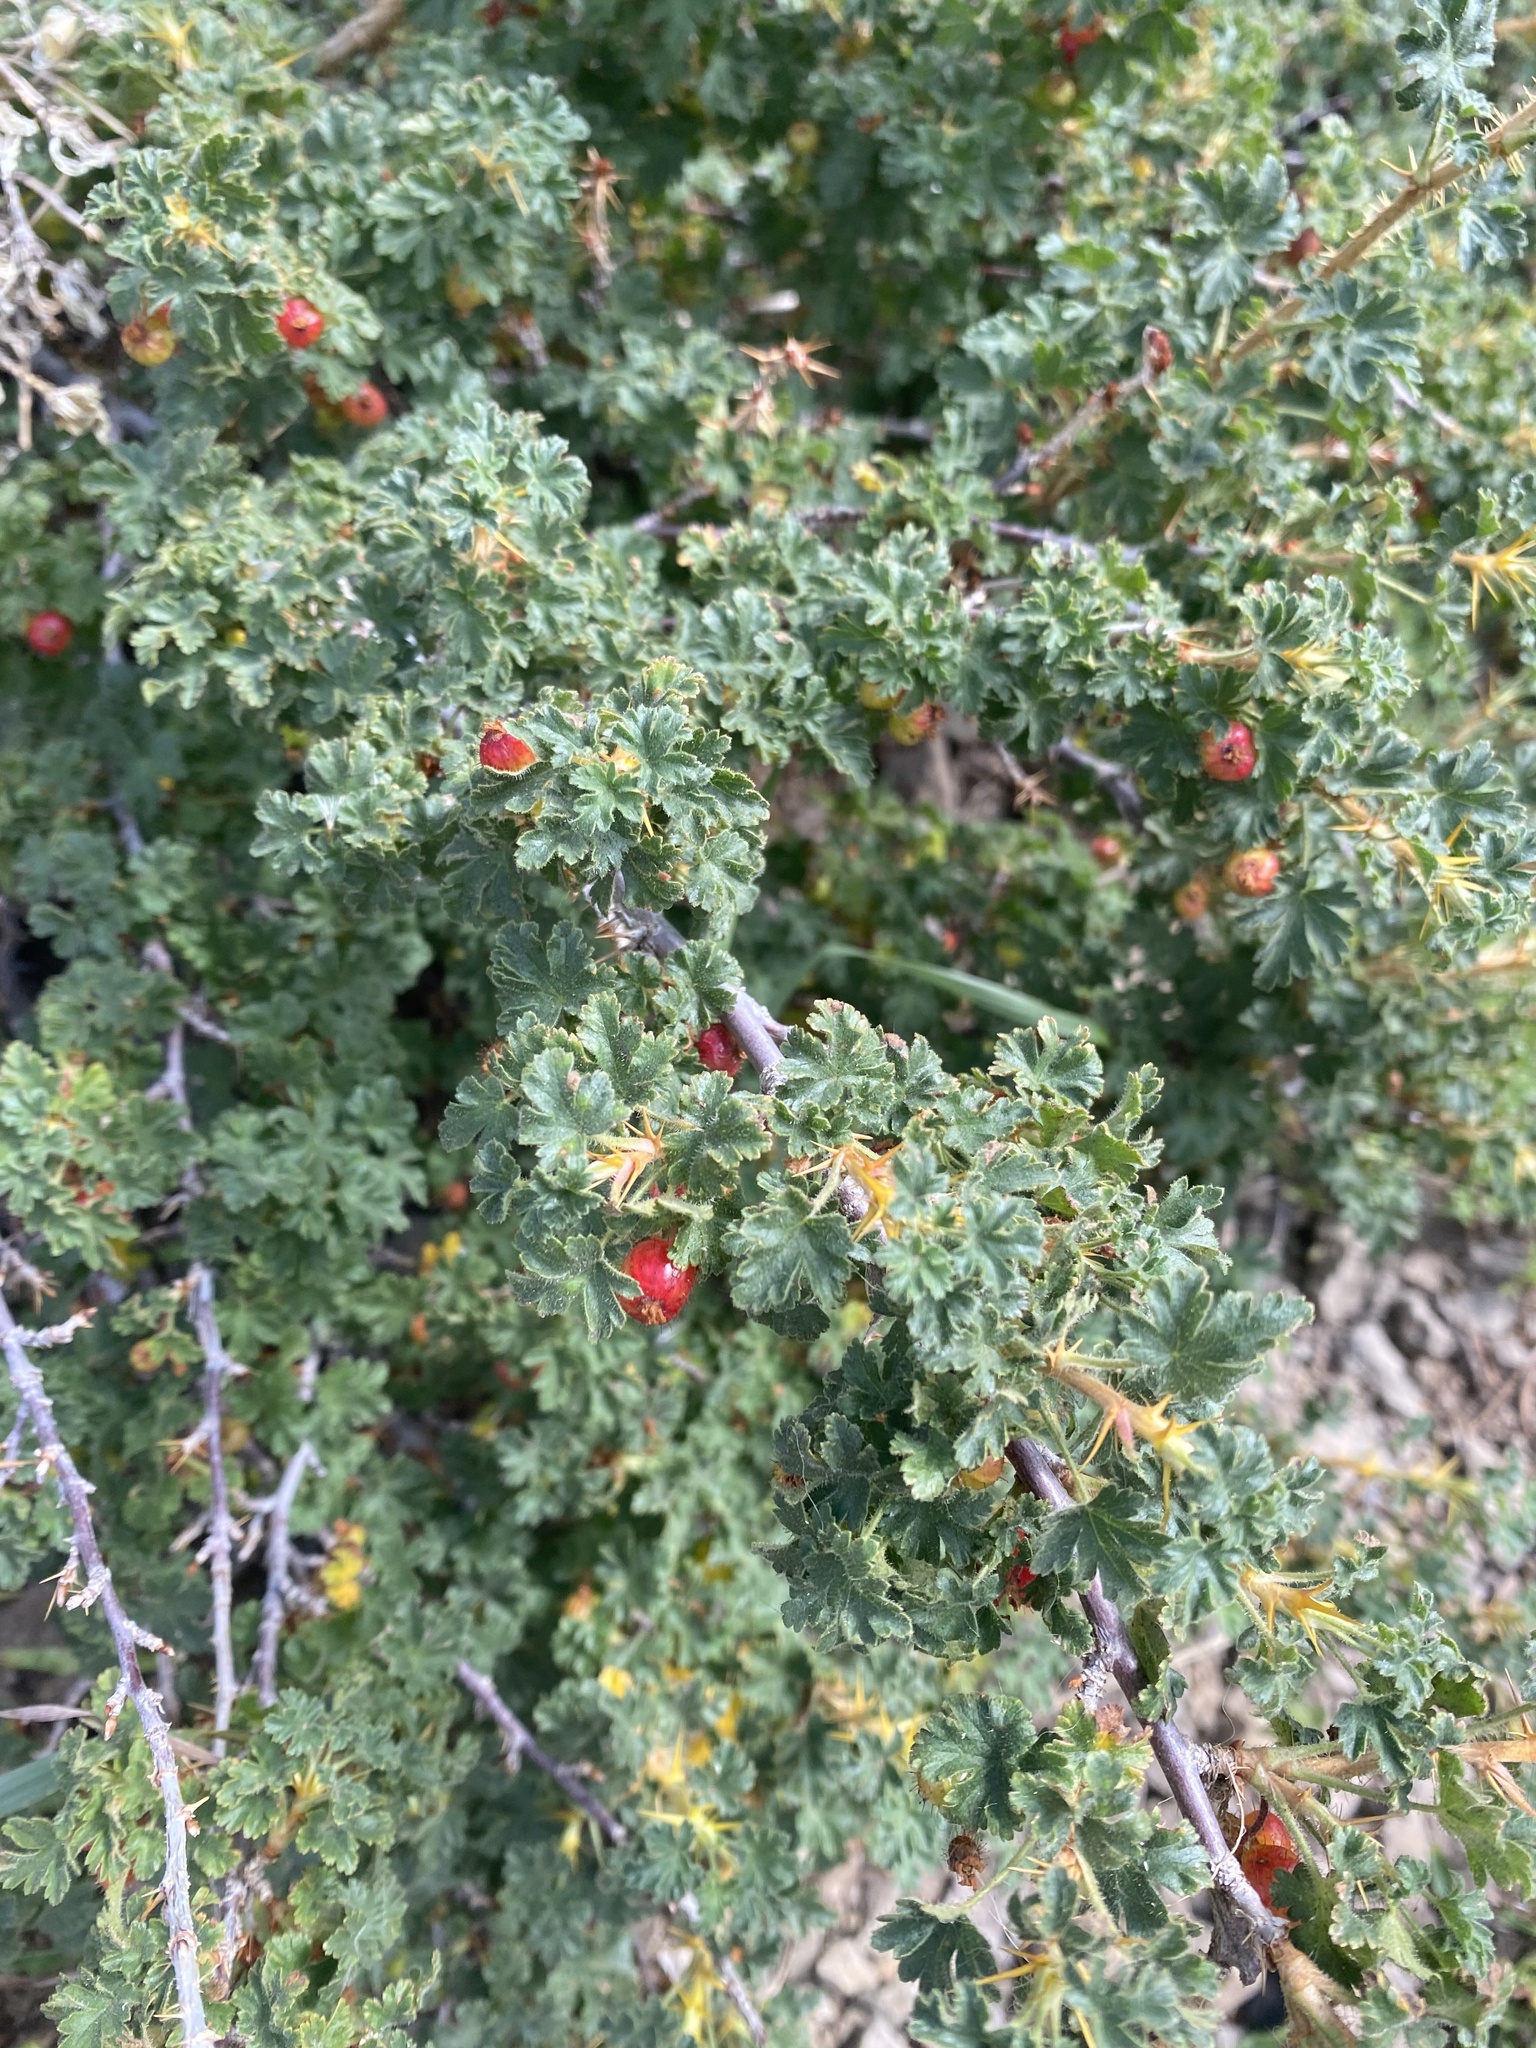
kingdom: Plantae
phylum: Tracheophyta
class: Magnoliopsida
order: Saxifragales
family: Grossulariaceae
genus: Ribes
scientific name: Ribes montigenum
